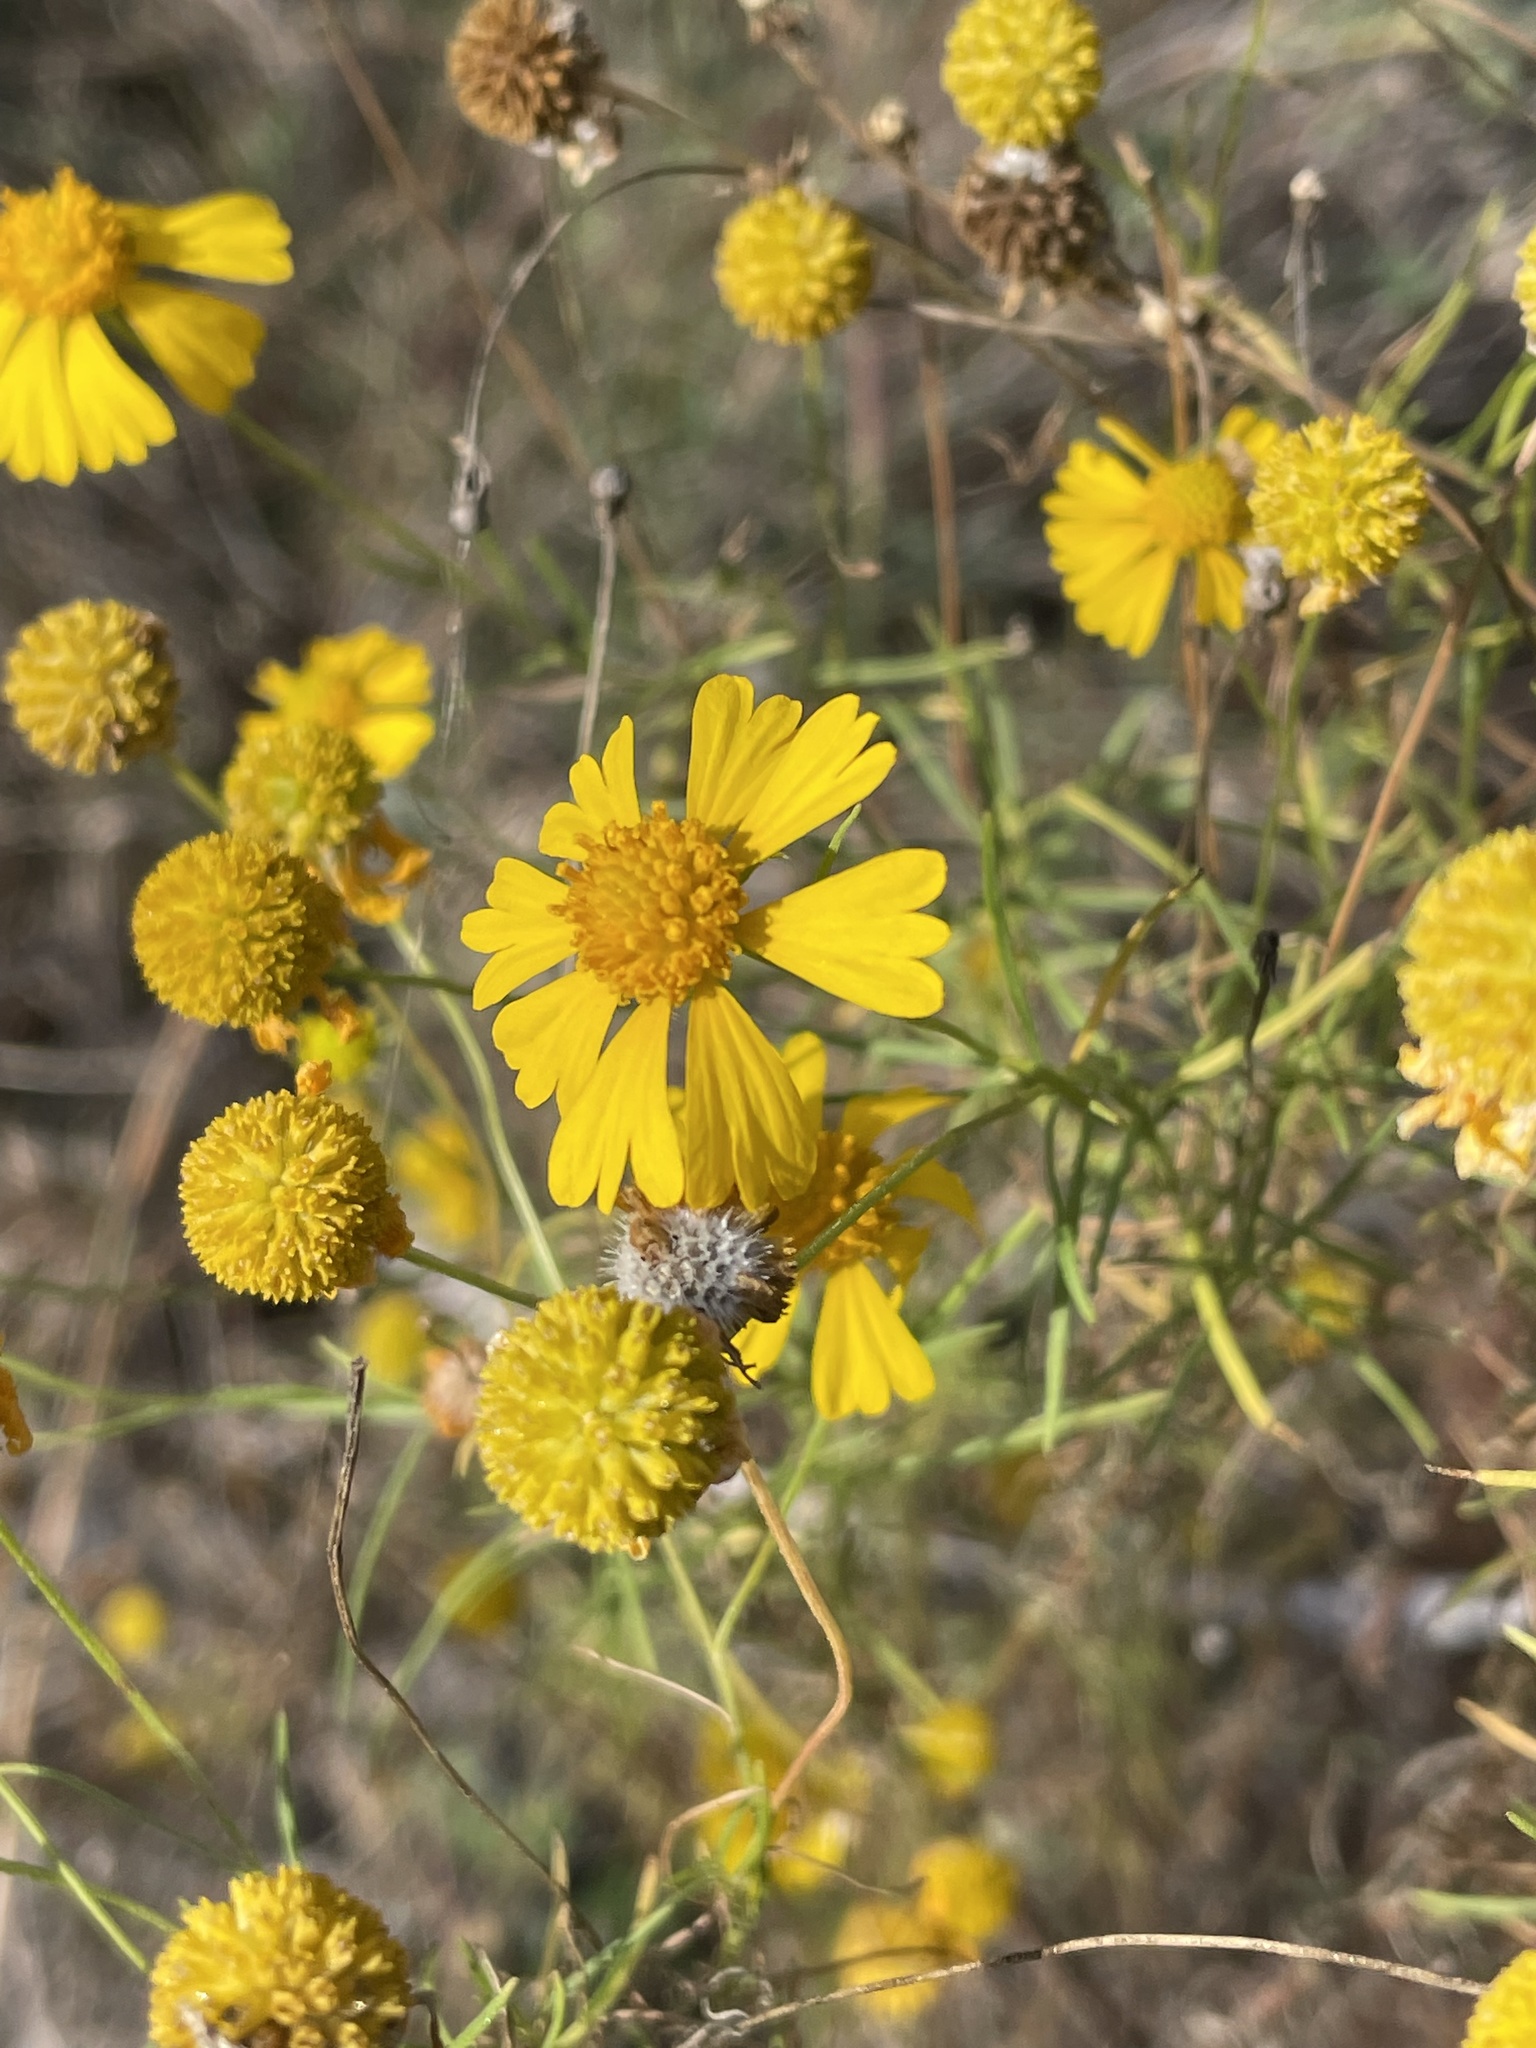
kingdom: Plantae
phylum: Tracheophyta
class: Magnoliopsida
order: Asterales
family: Asteraceae
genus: Helenium
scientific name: Helenium amarum
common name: Bitter sneezeweed
